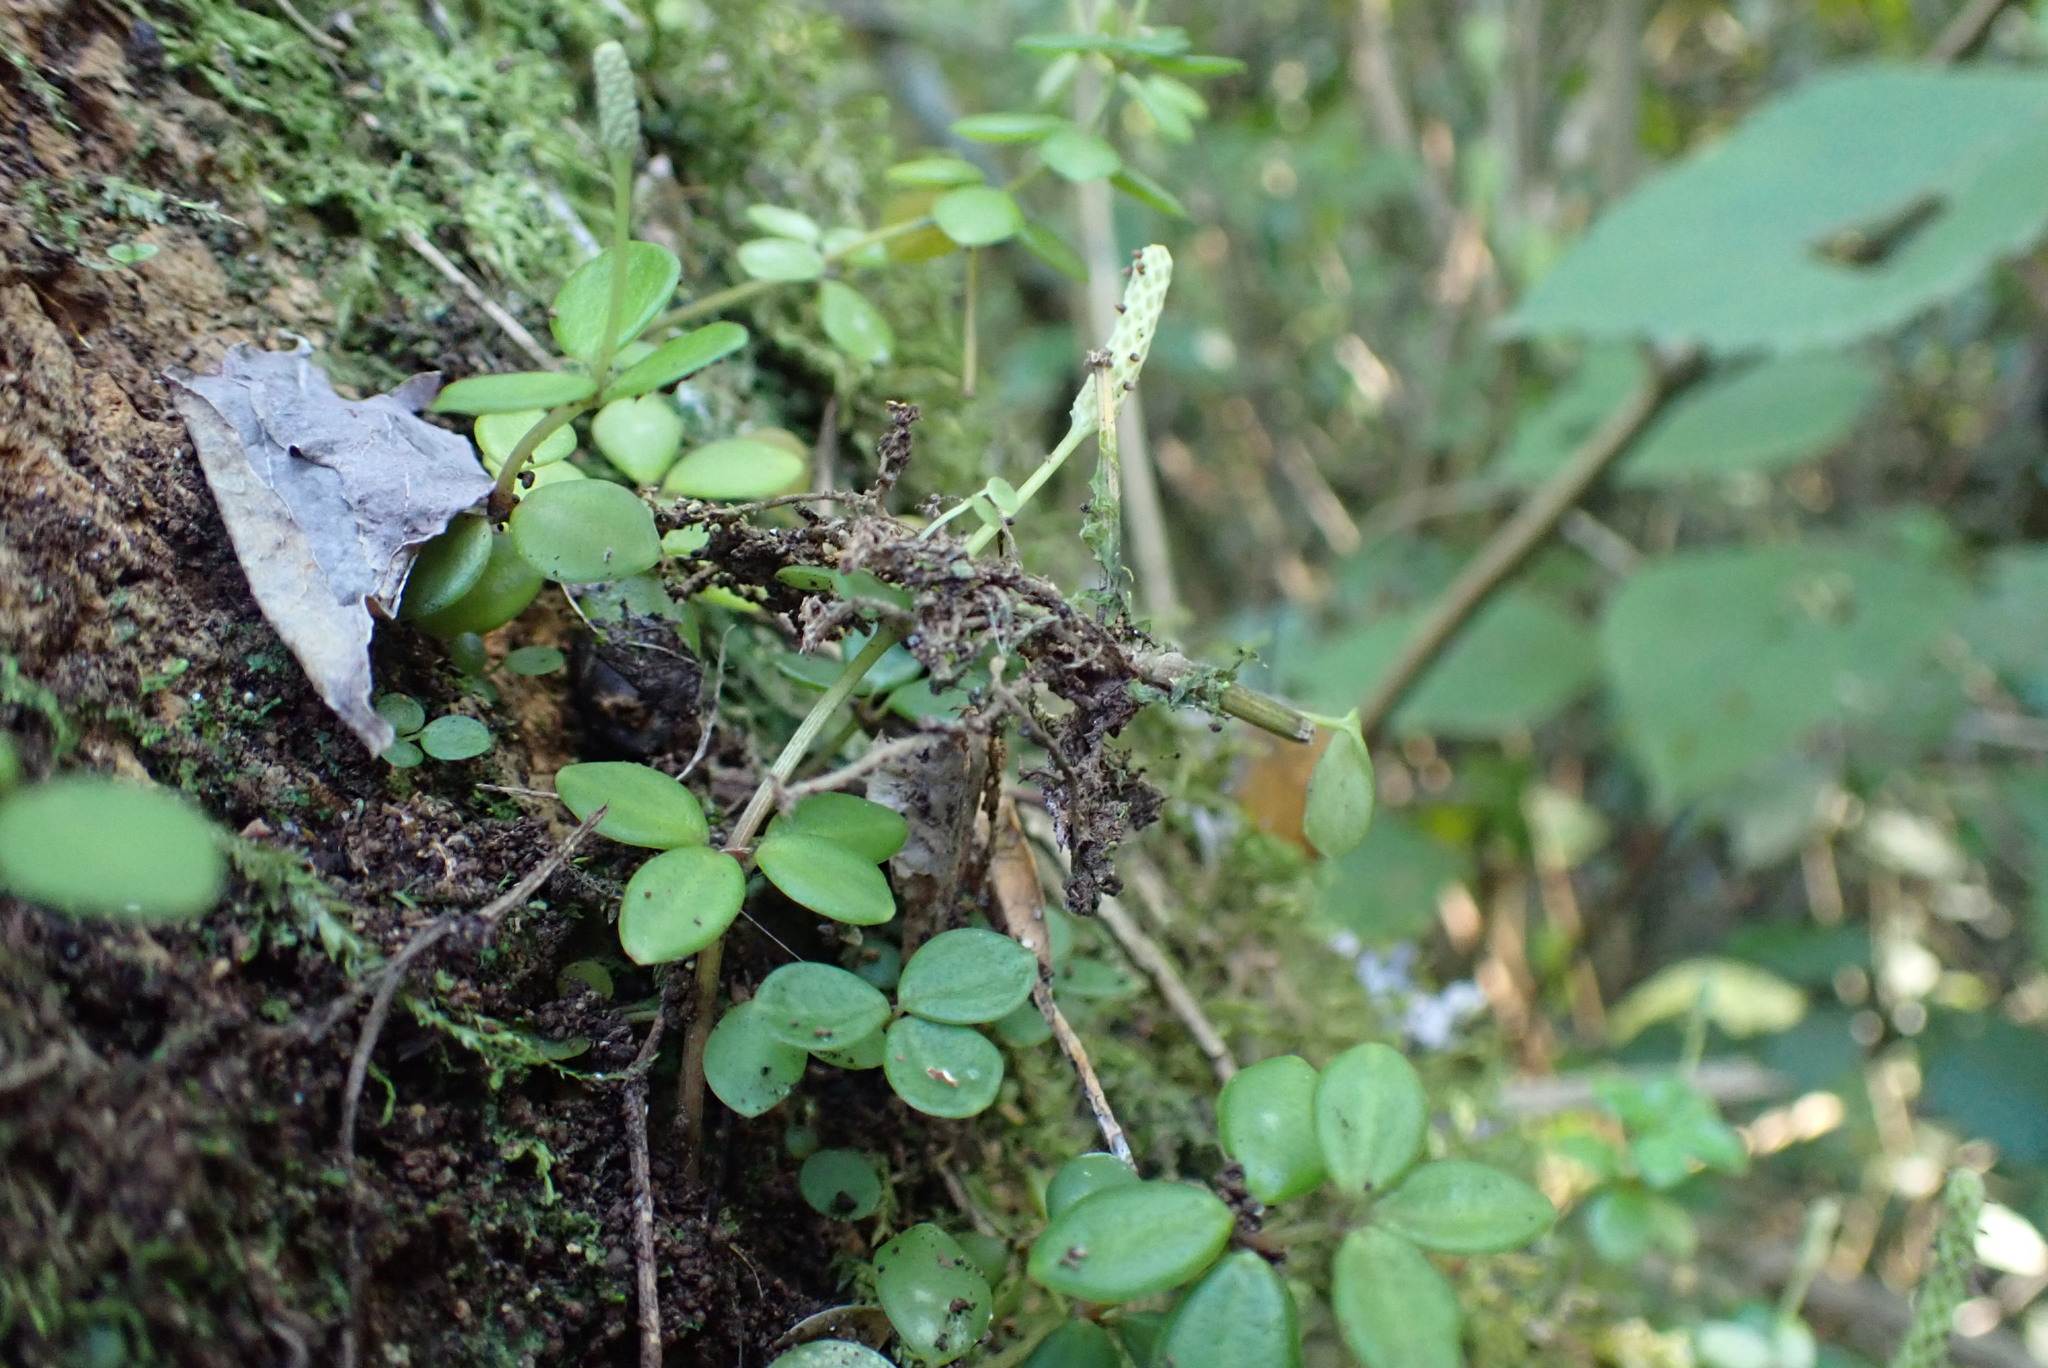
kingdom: Plantae
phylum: Tracheophyta
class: Magnoliopsida
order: Piperales
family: Piperaceae
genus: Peperomia
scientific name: Peperomia tetraphylla
